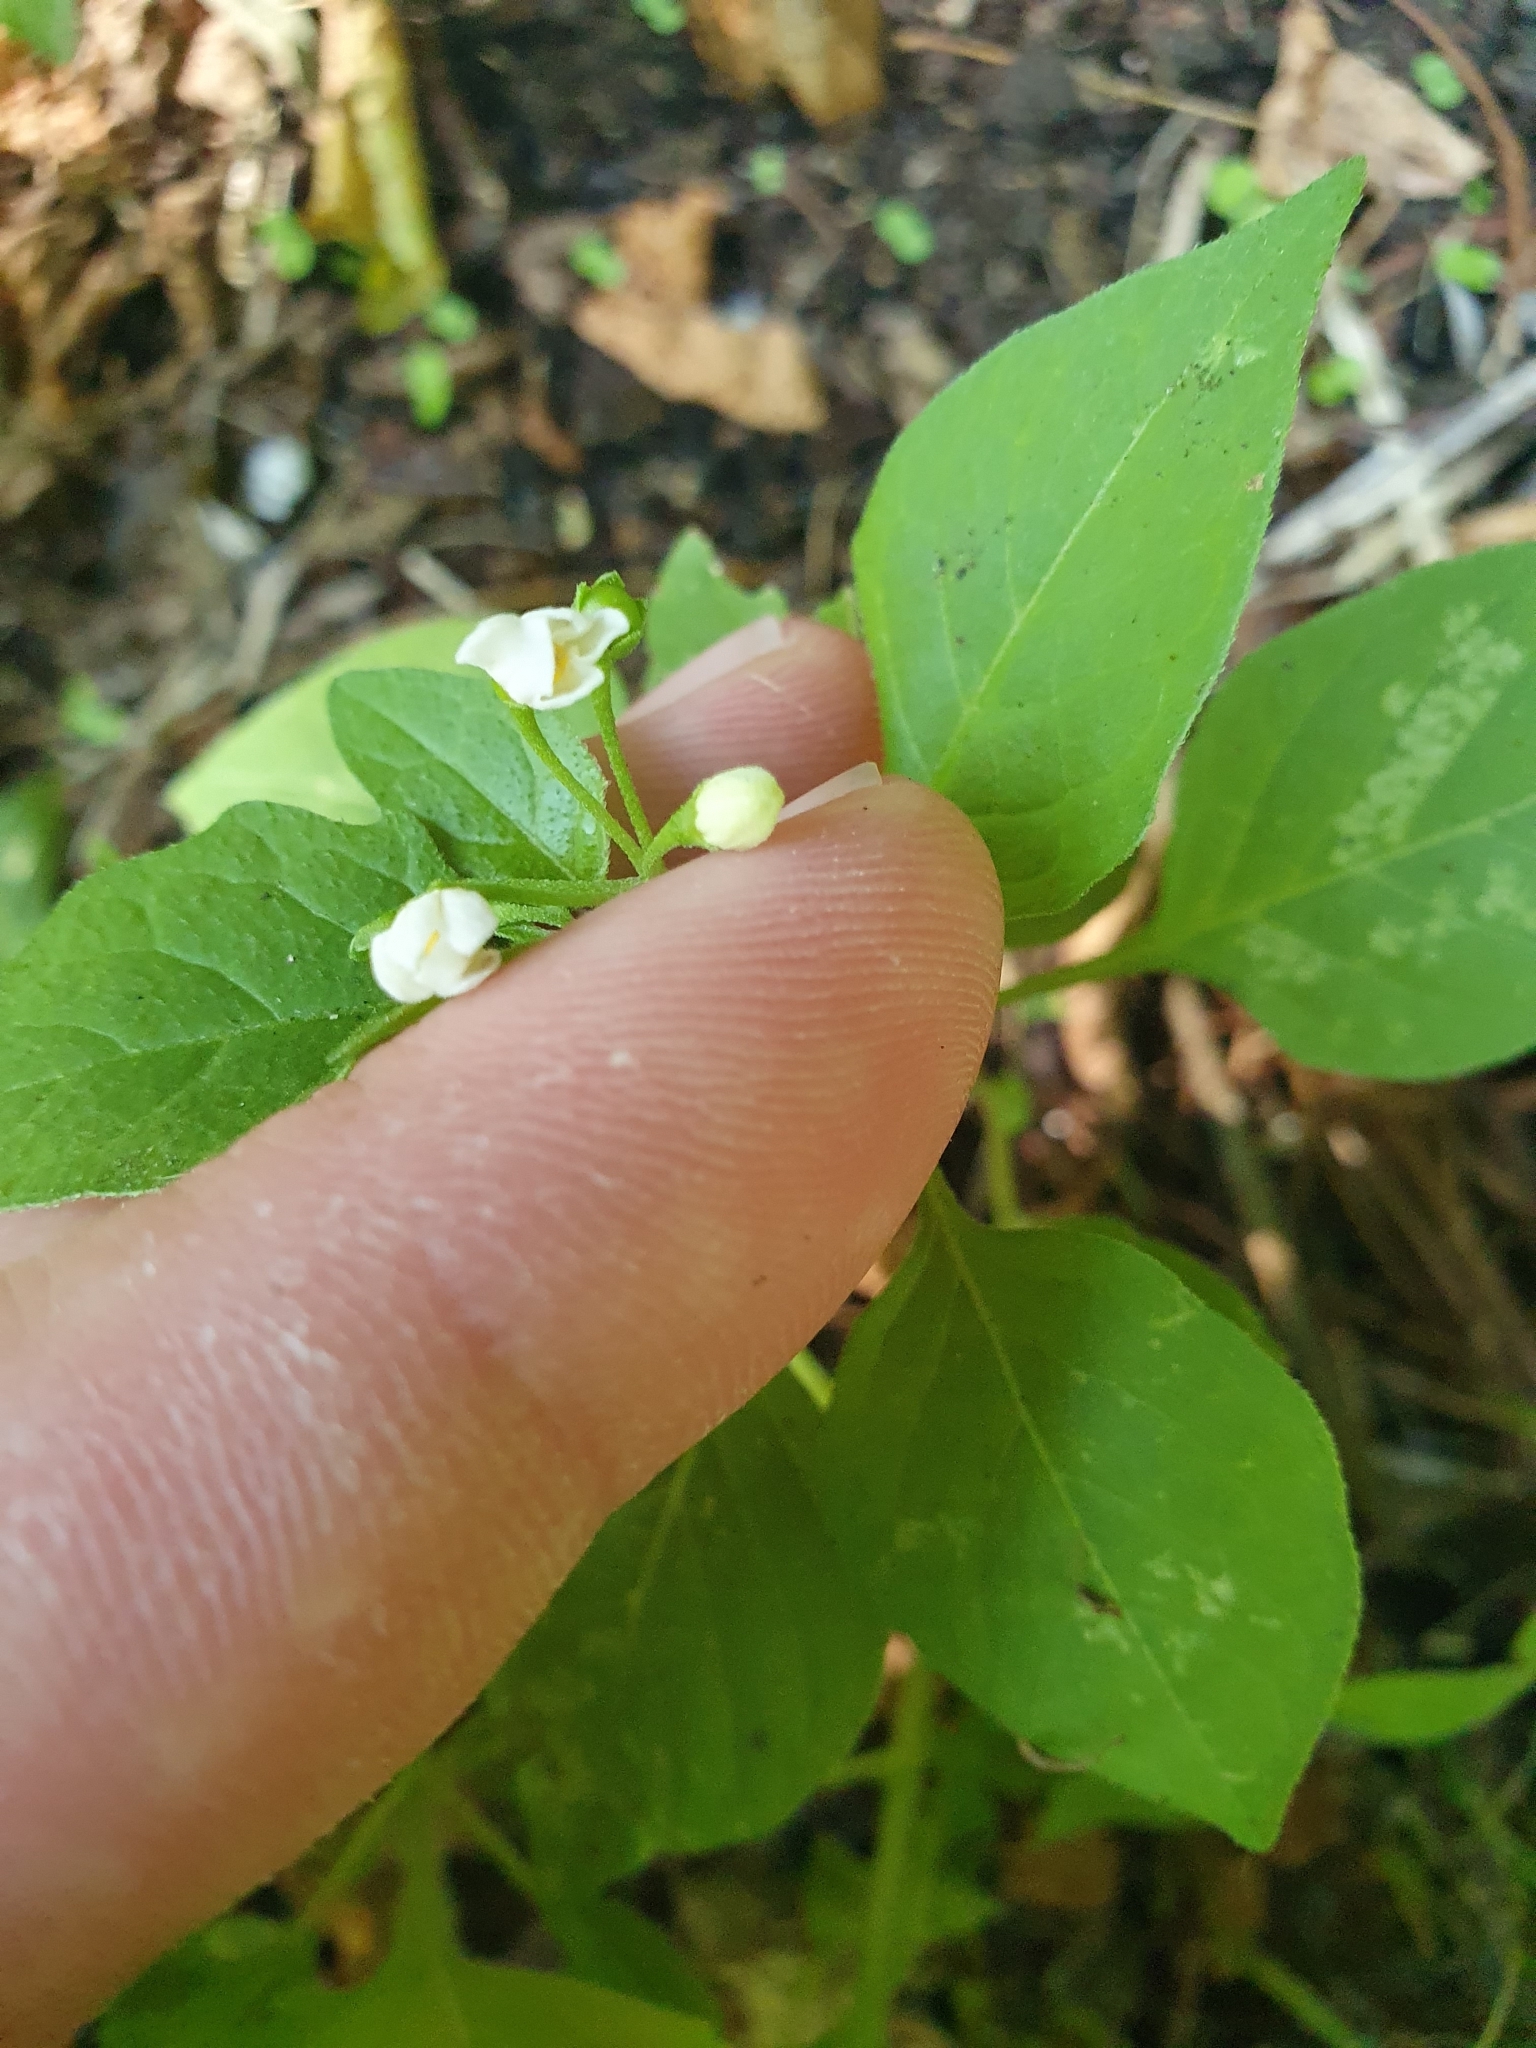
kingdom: Plantae
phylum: Tracheophyta
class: Magnoliopsida
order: Solanales
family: Solanaceae
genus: Solanum
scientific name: Solanum nigrum
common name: Black nightshade
